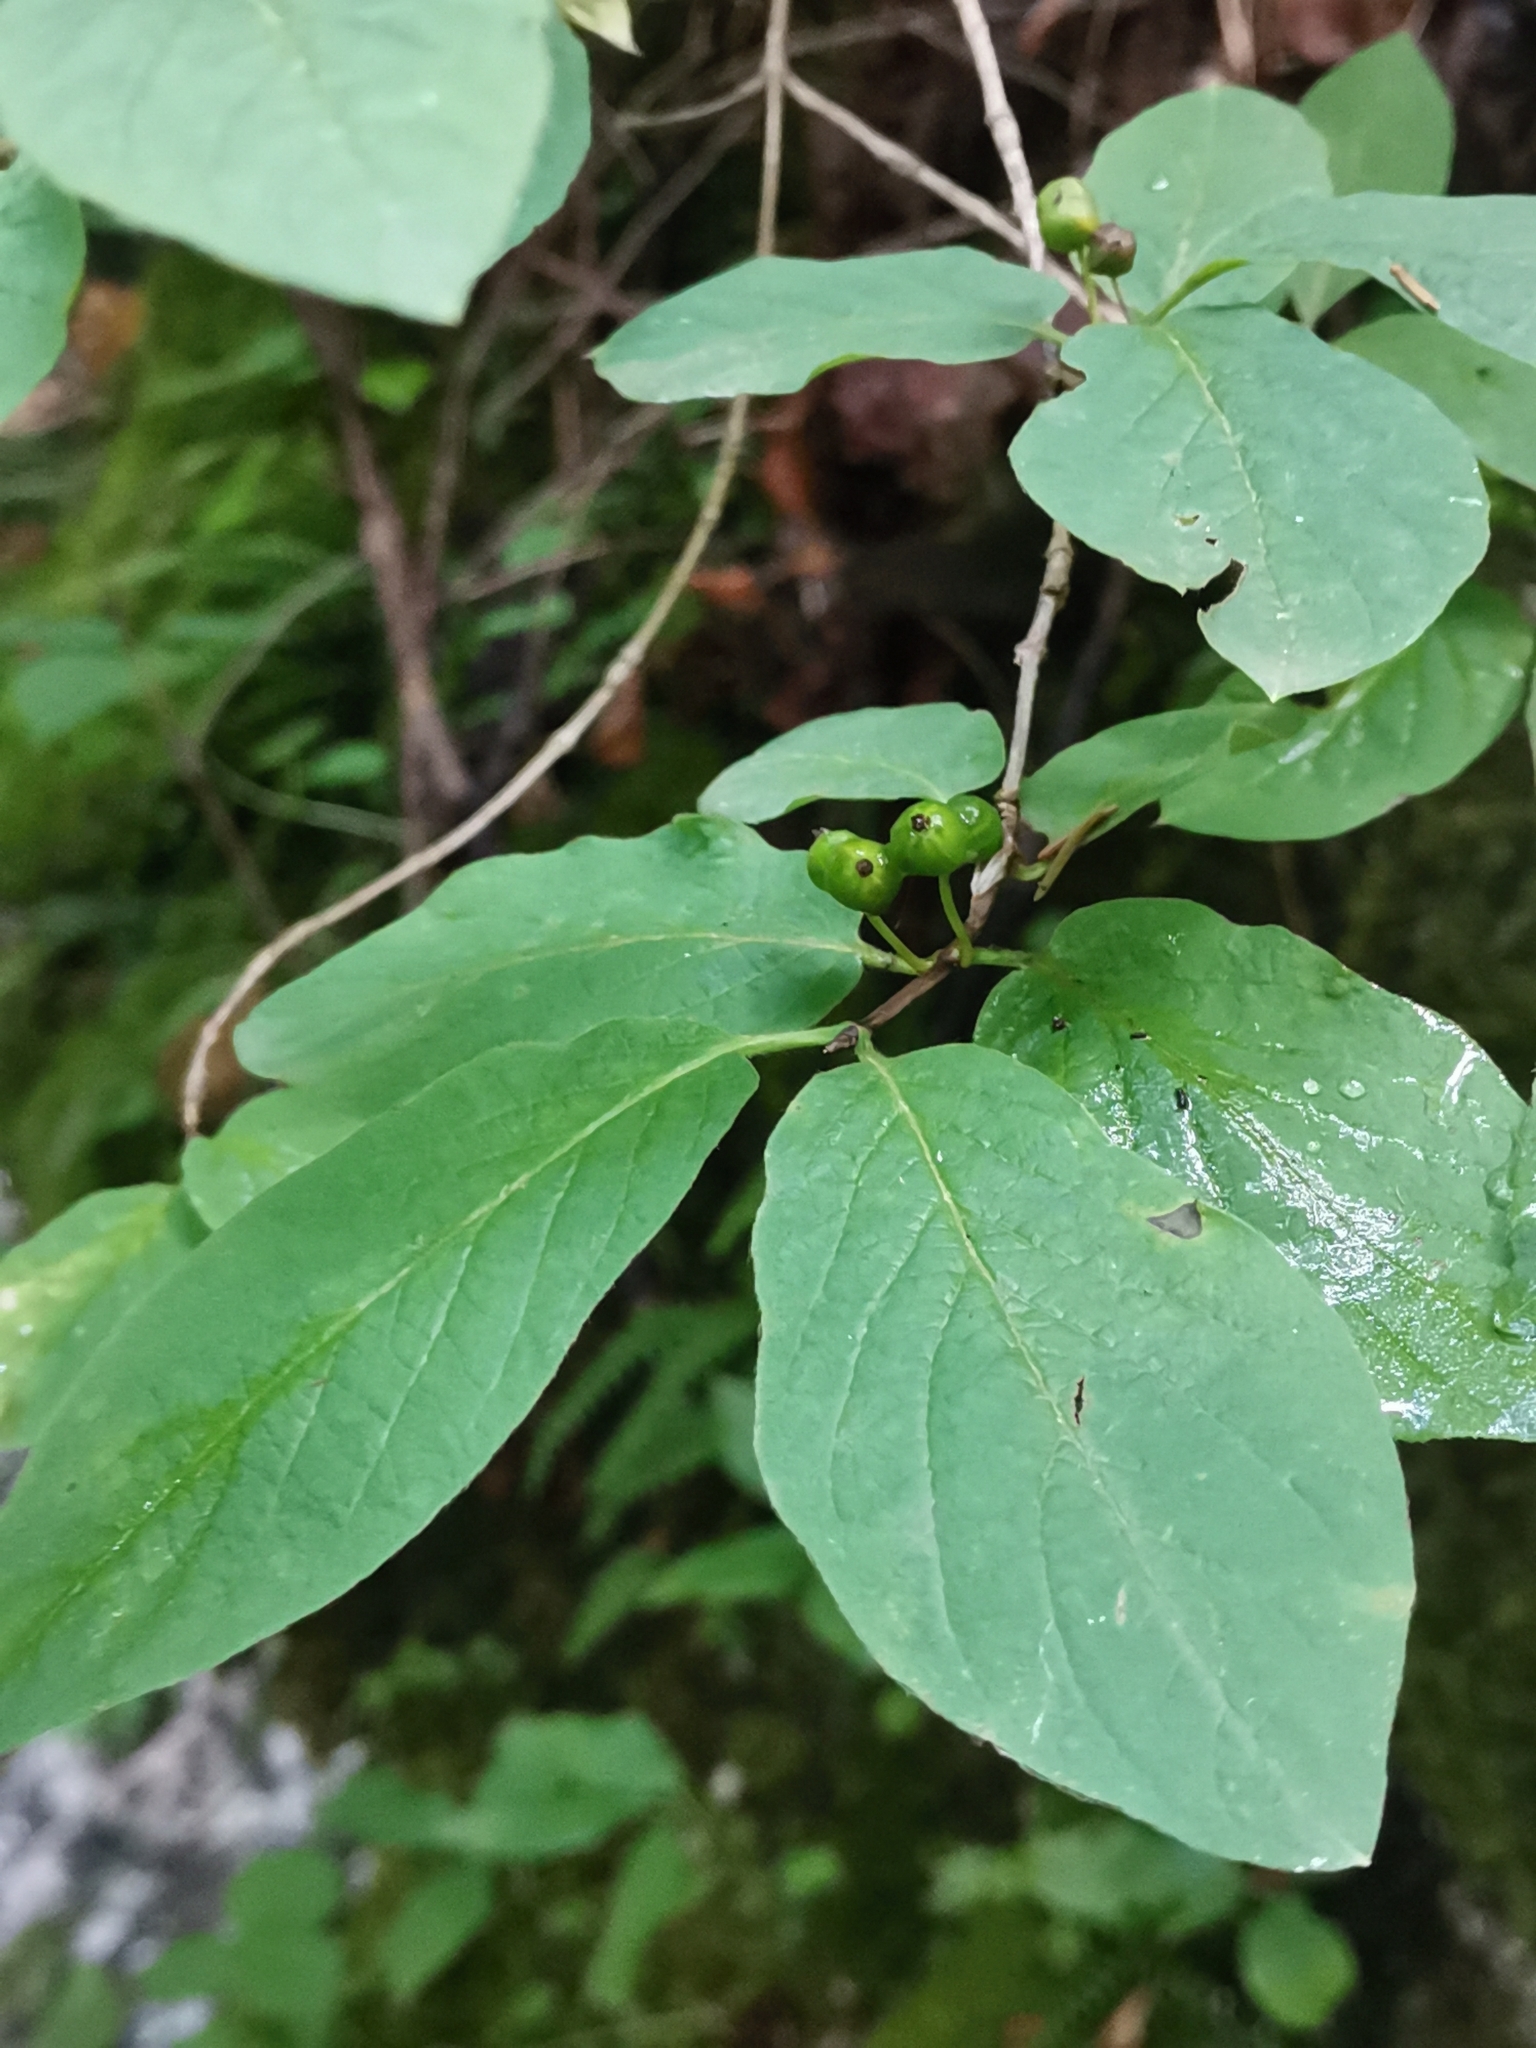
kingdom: Plantae
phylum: Tracheophyta
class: Magnoliopsida
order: Dipsacales
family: Caprifoliaceae
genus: Lonicera
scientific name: Lonicera xylosteum
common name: Fly honeysuckle
